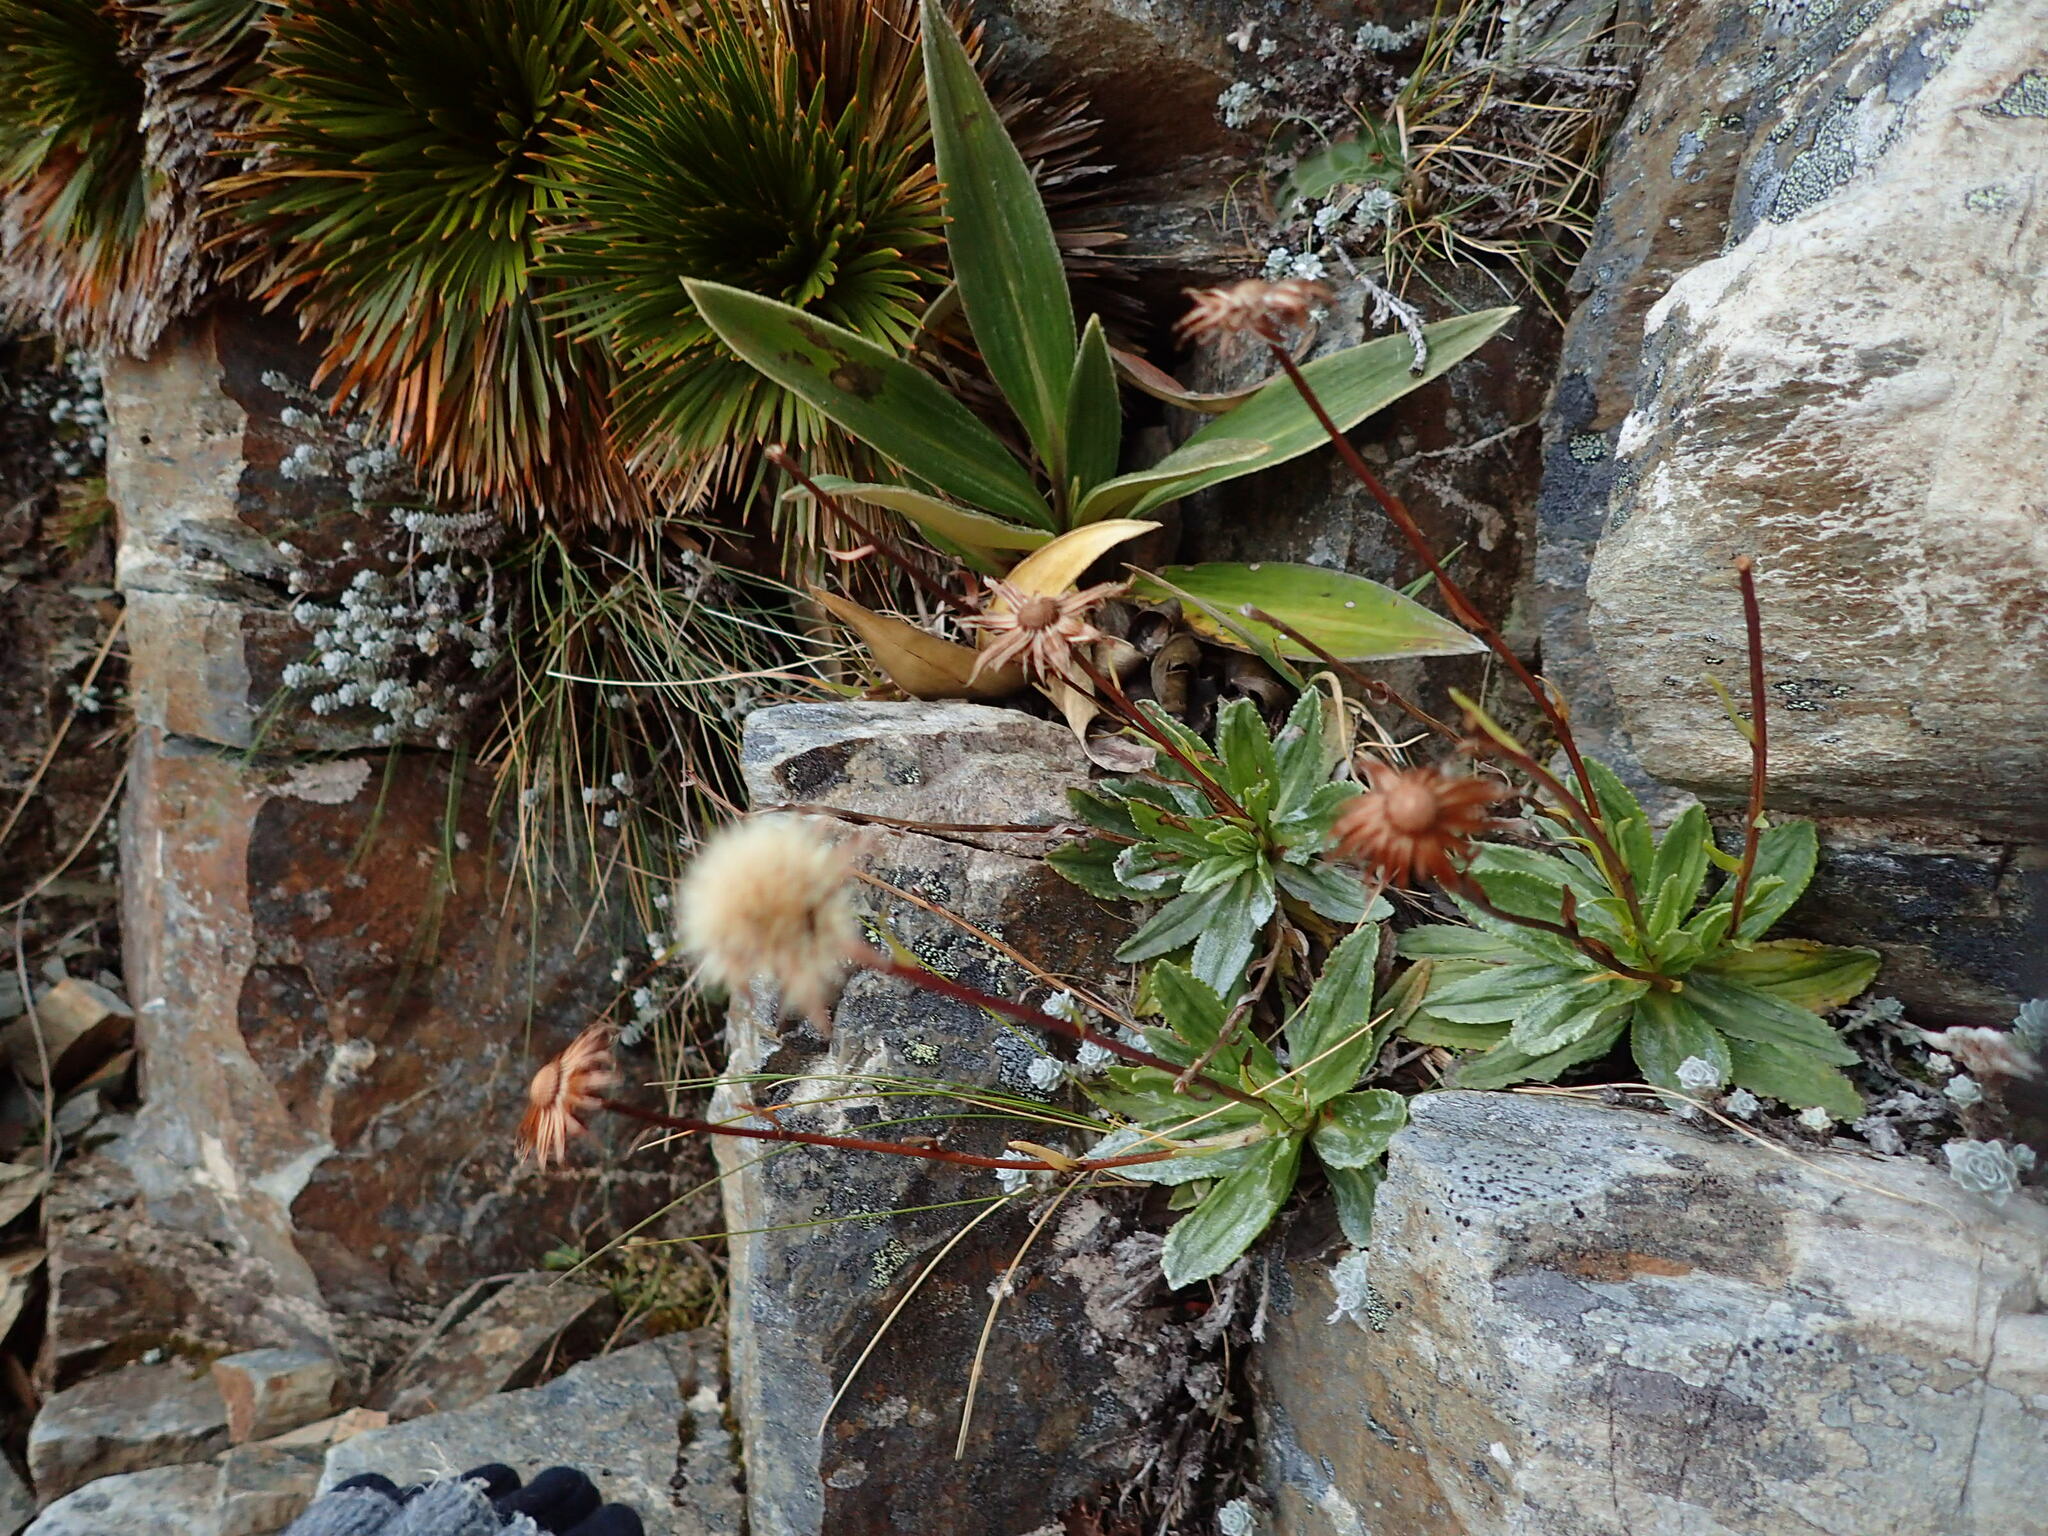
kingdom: Plantae
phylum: Tracheophyta
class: Magnoliopsida
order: Asterales
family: Asteraceae
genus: Celmisia
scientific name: Celmisia prorepens
